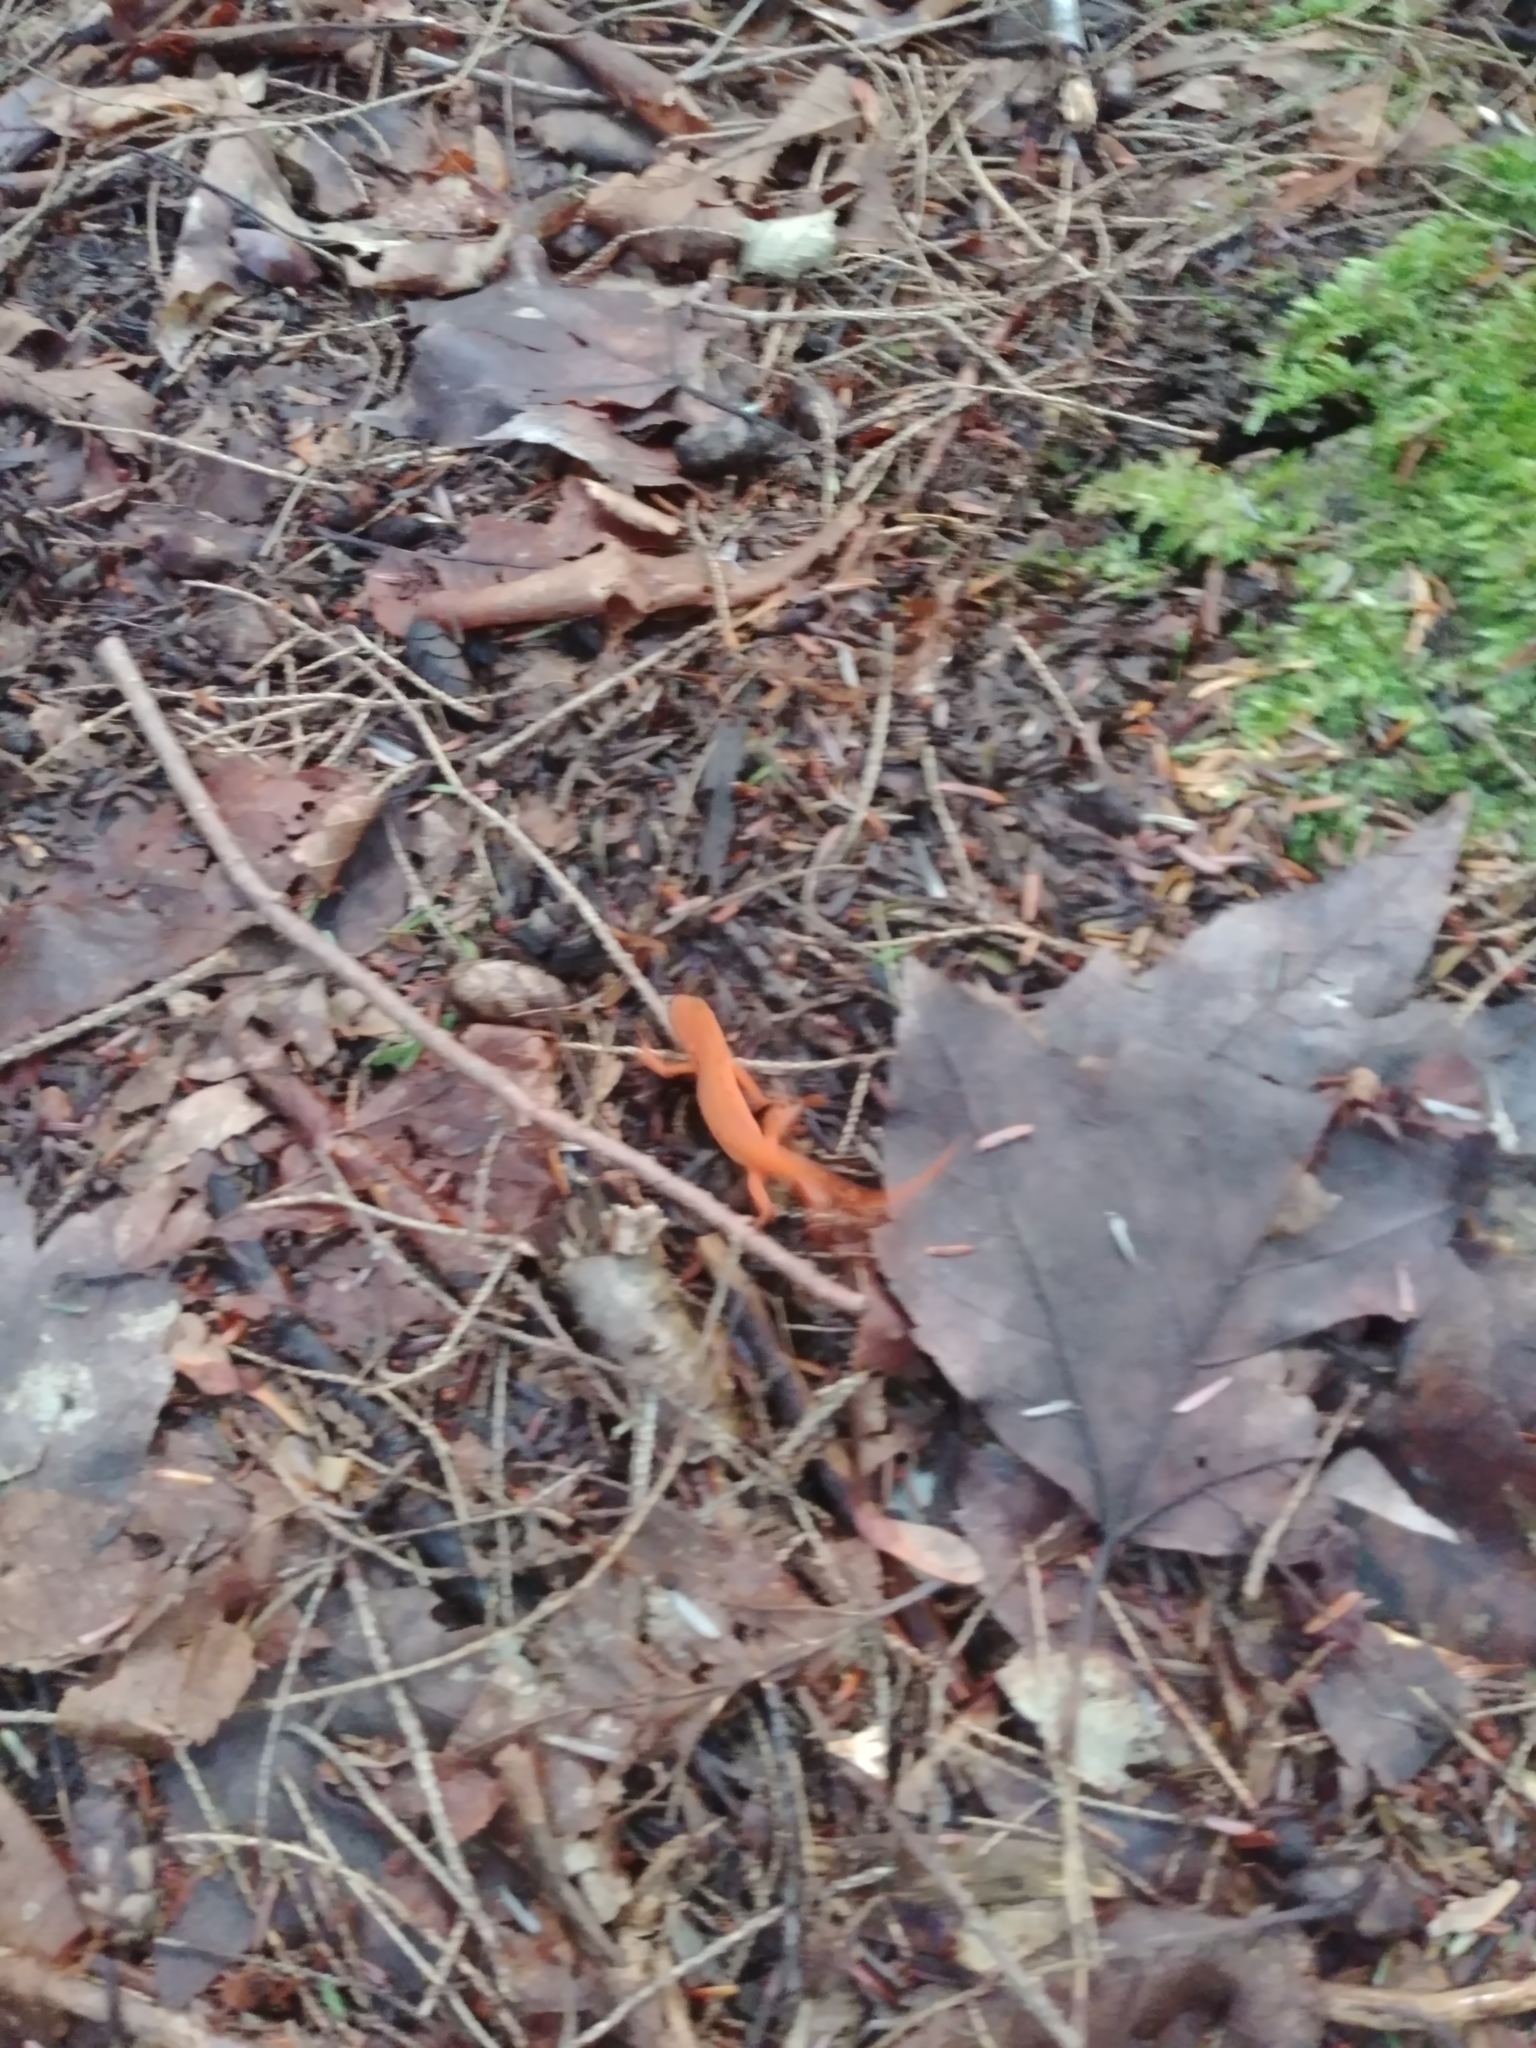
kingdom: Animalia
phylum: Chordata
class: Amphibia
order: Caudata
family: Salamandridae
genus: Notophthalmus
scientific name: Notophthalmus viridescens
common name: Eastern newt
